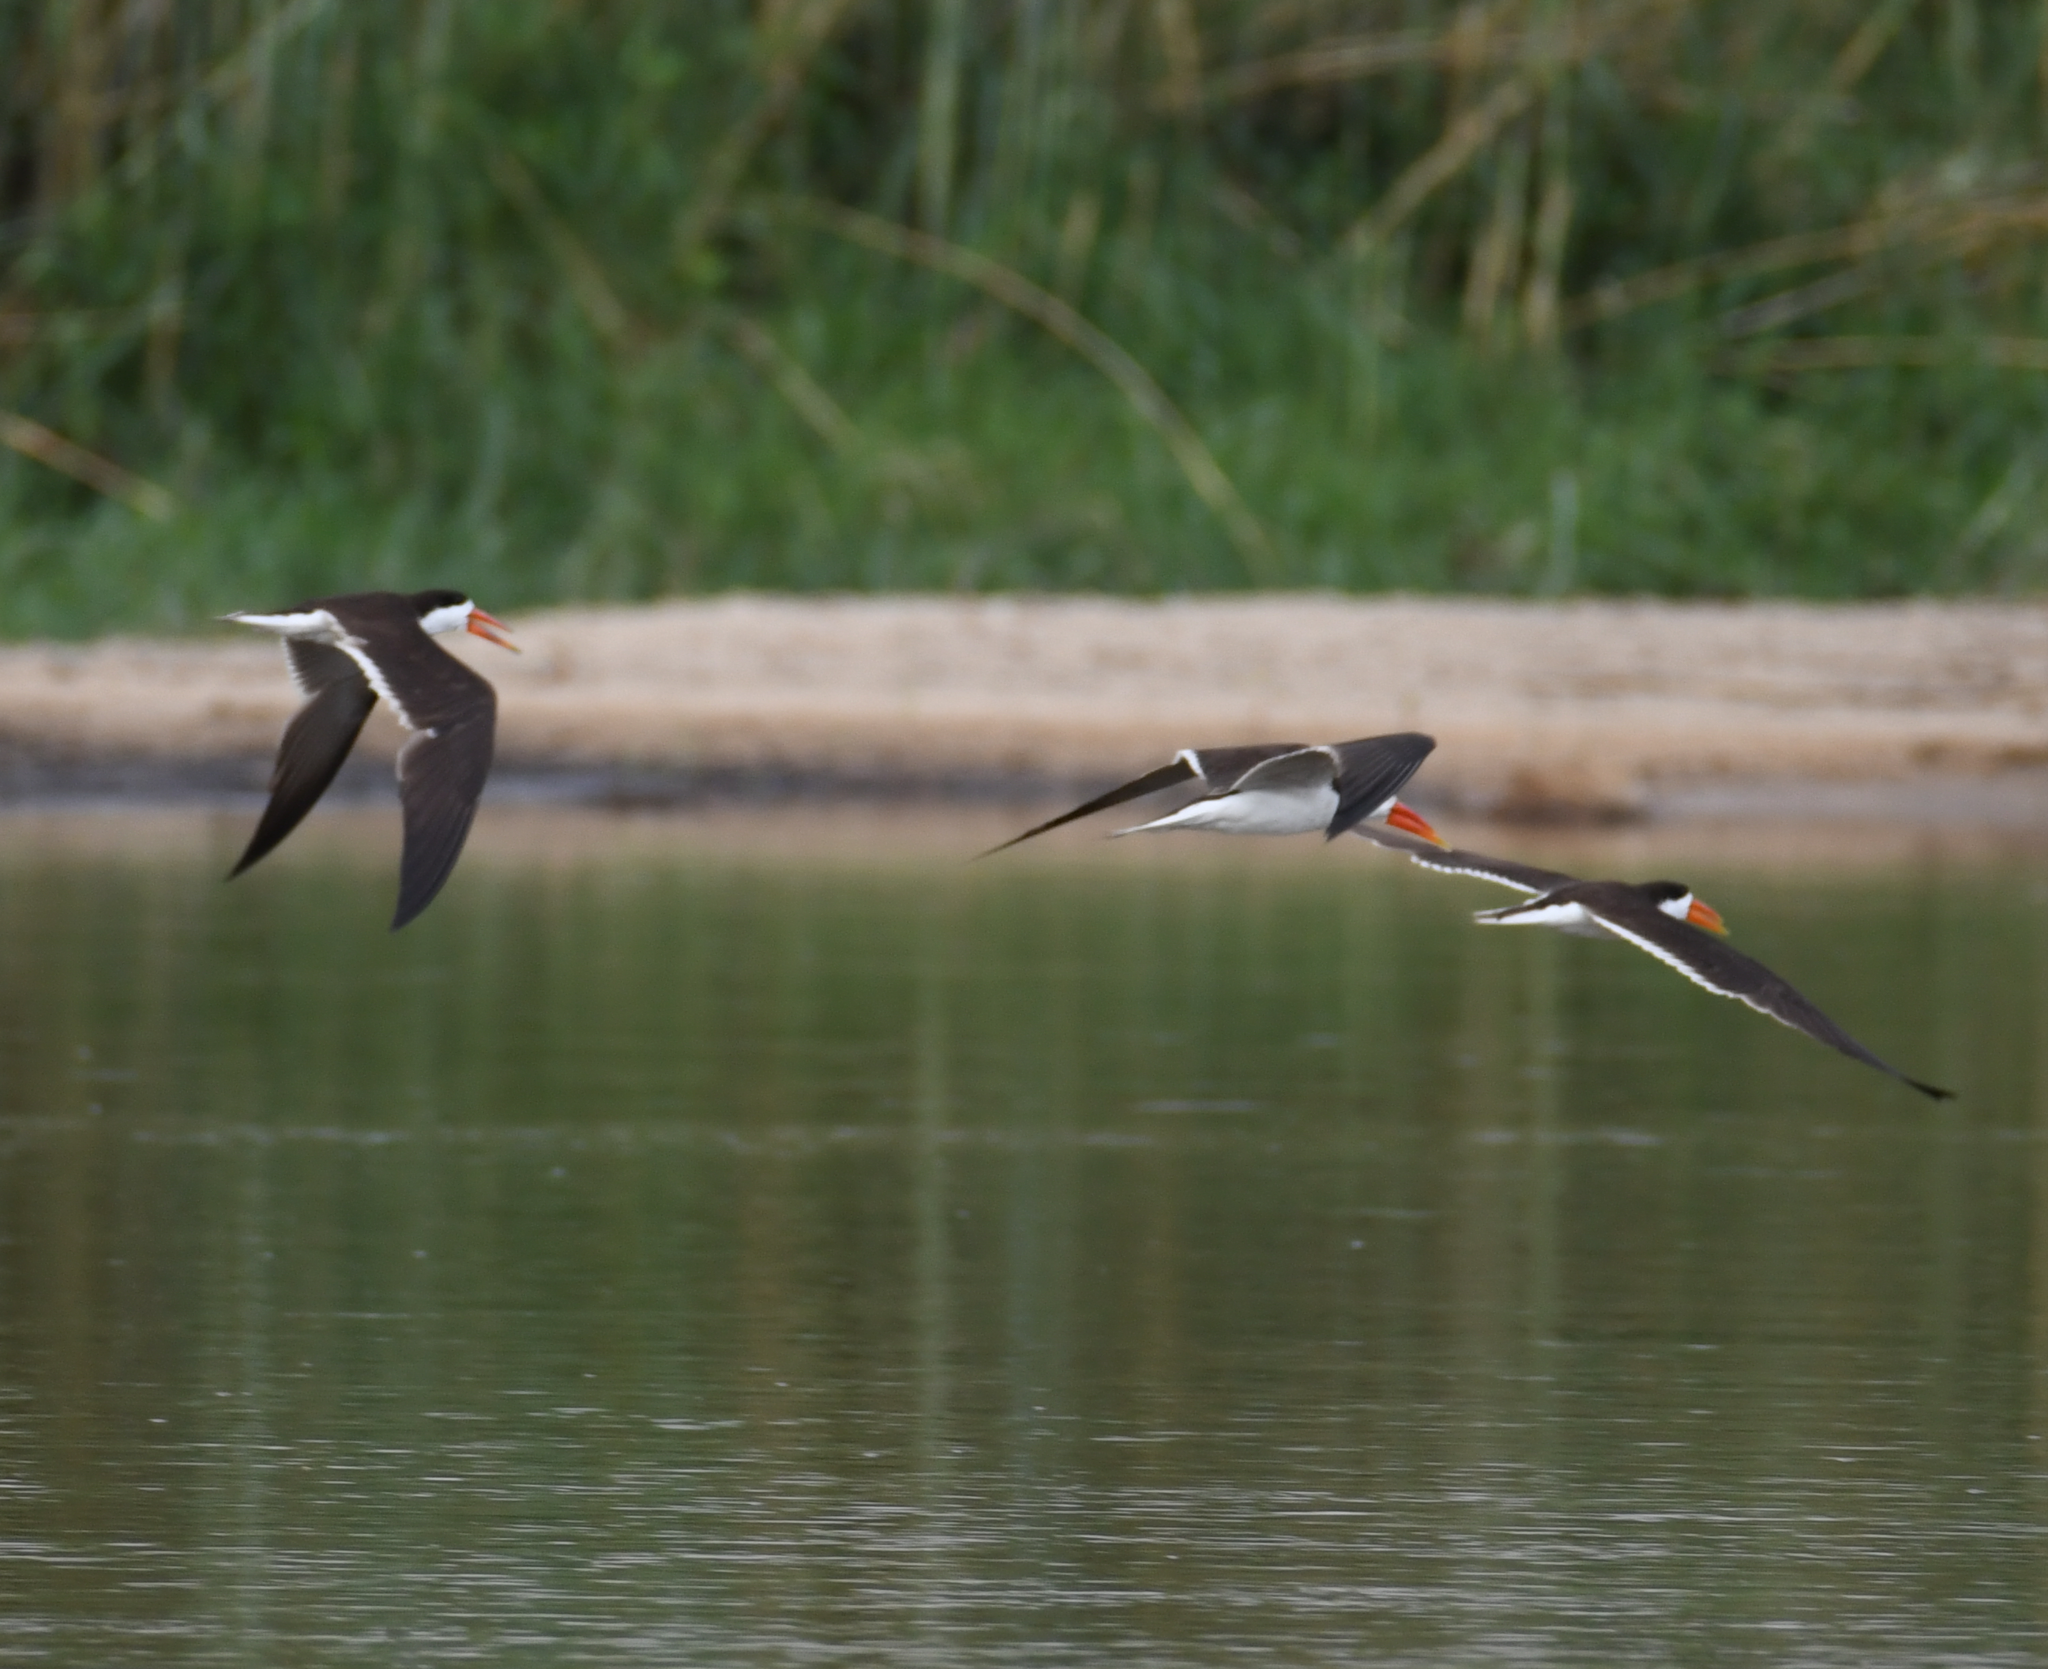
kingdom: Animalia
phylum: Chordata
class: Aves
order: Charadriiformes
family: Laridae
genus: Rynchops
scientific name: Rynchops flavirostris
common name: African skimmer
